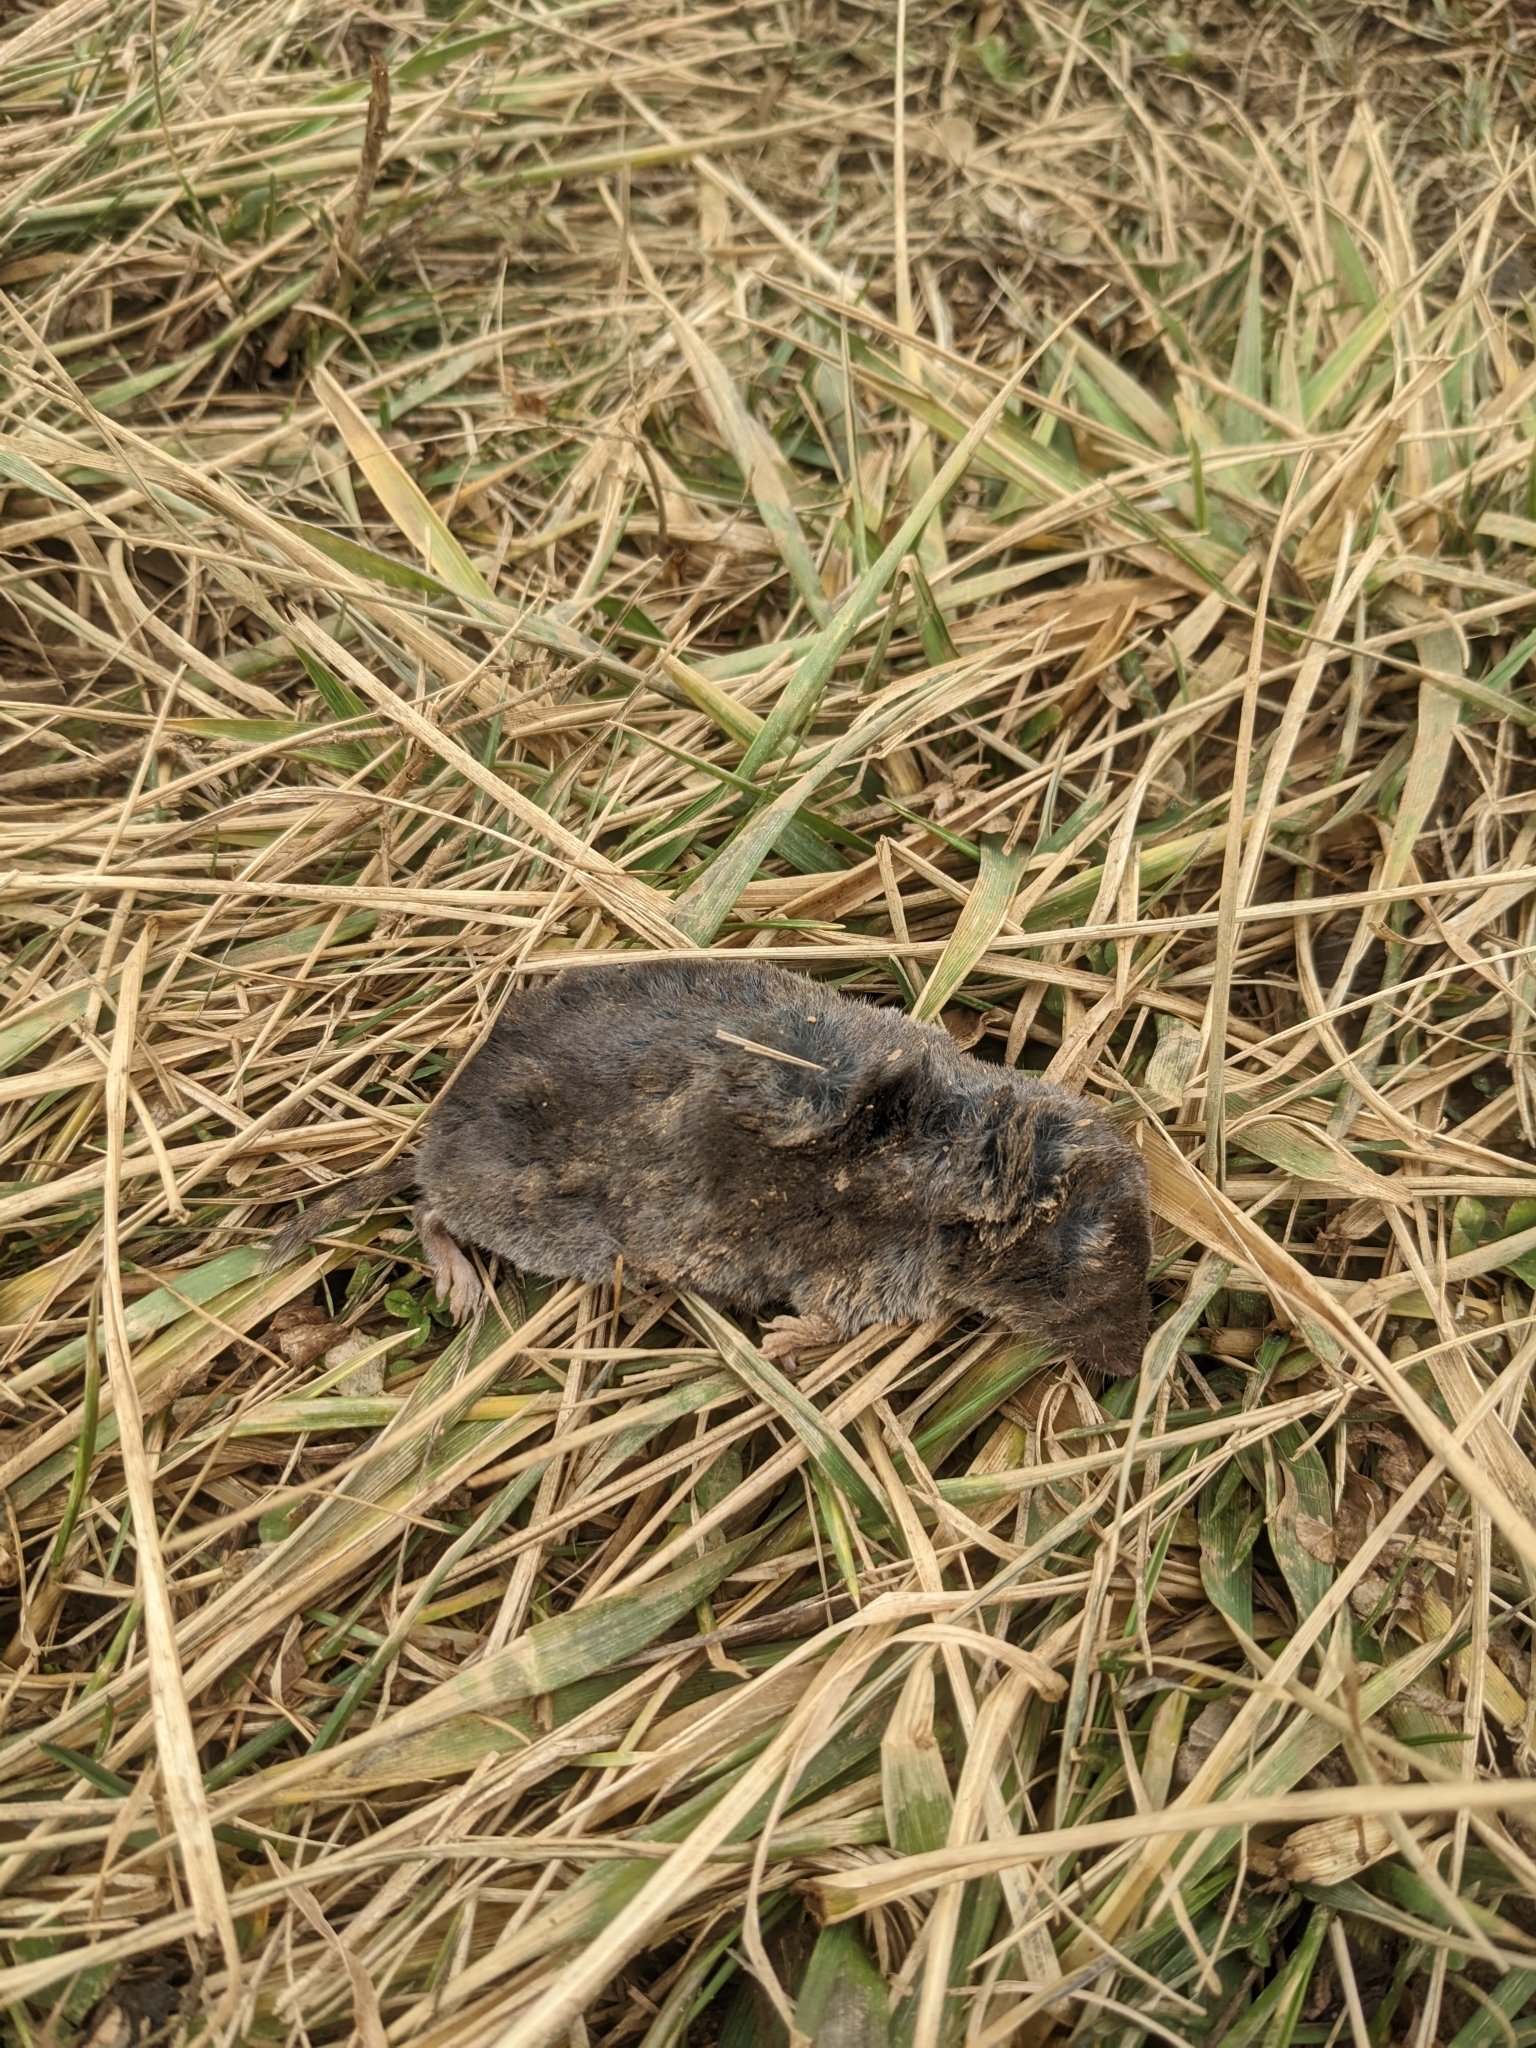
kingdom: Animalia
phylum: Chordata
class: Mammalia
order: Soricomorpha
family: Soricidae
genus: Blarina
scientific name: Blarina brevicauda
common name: Northern short-tailed shrew
